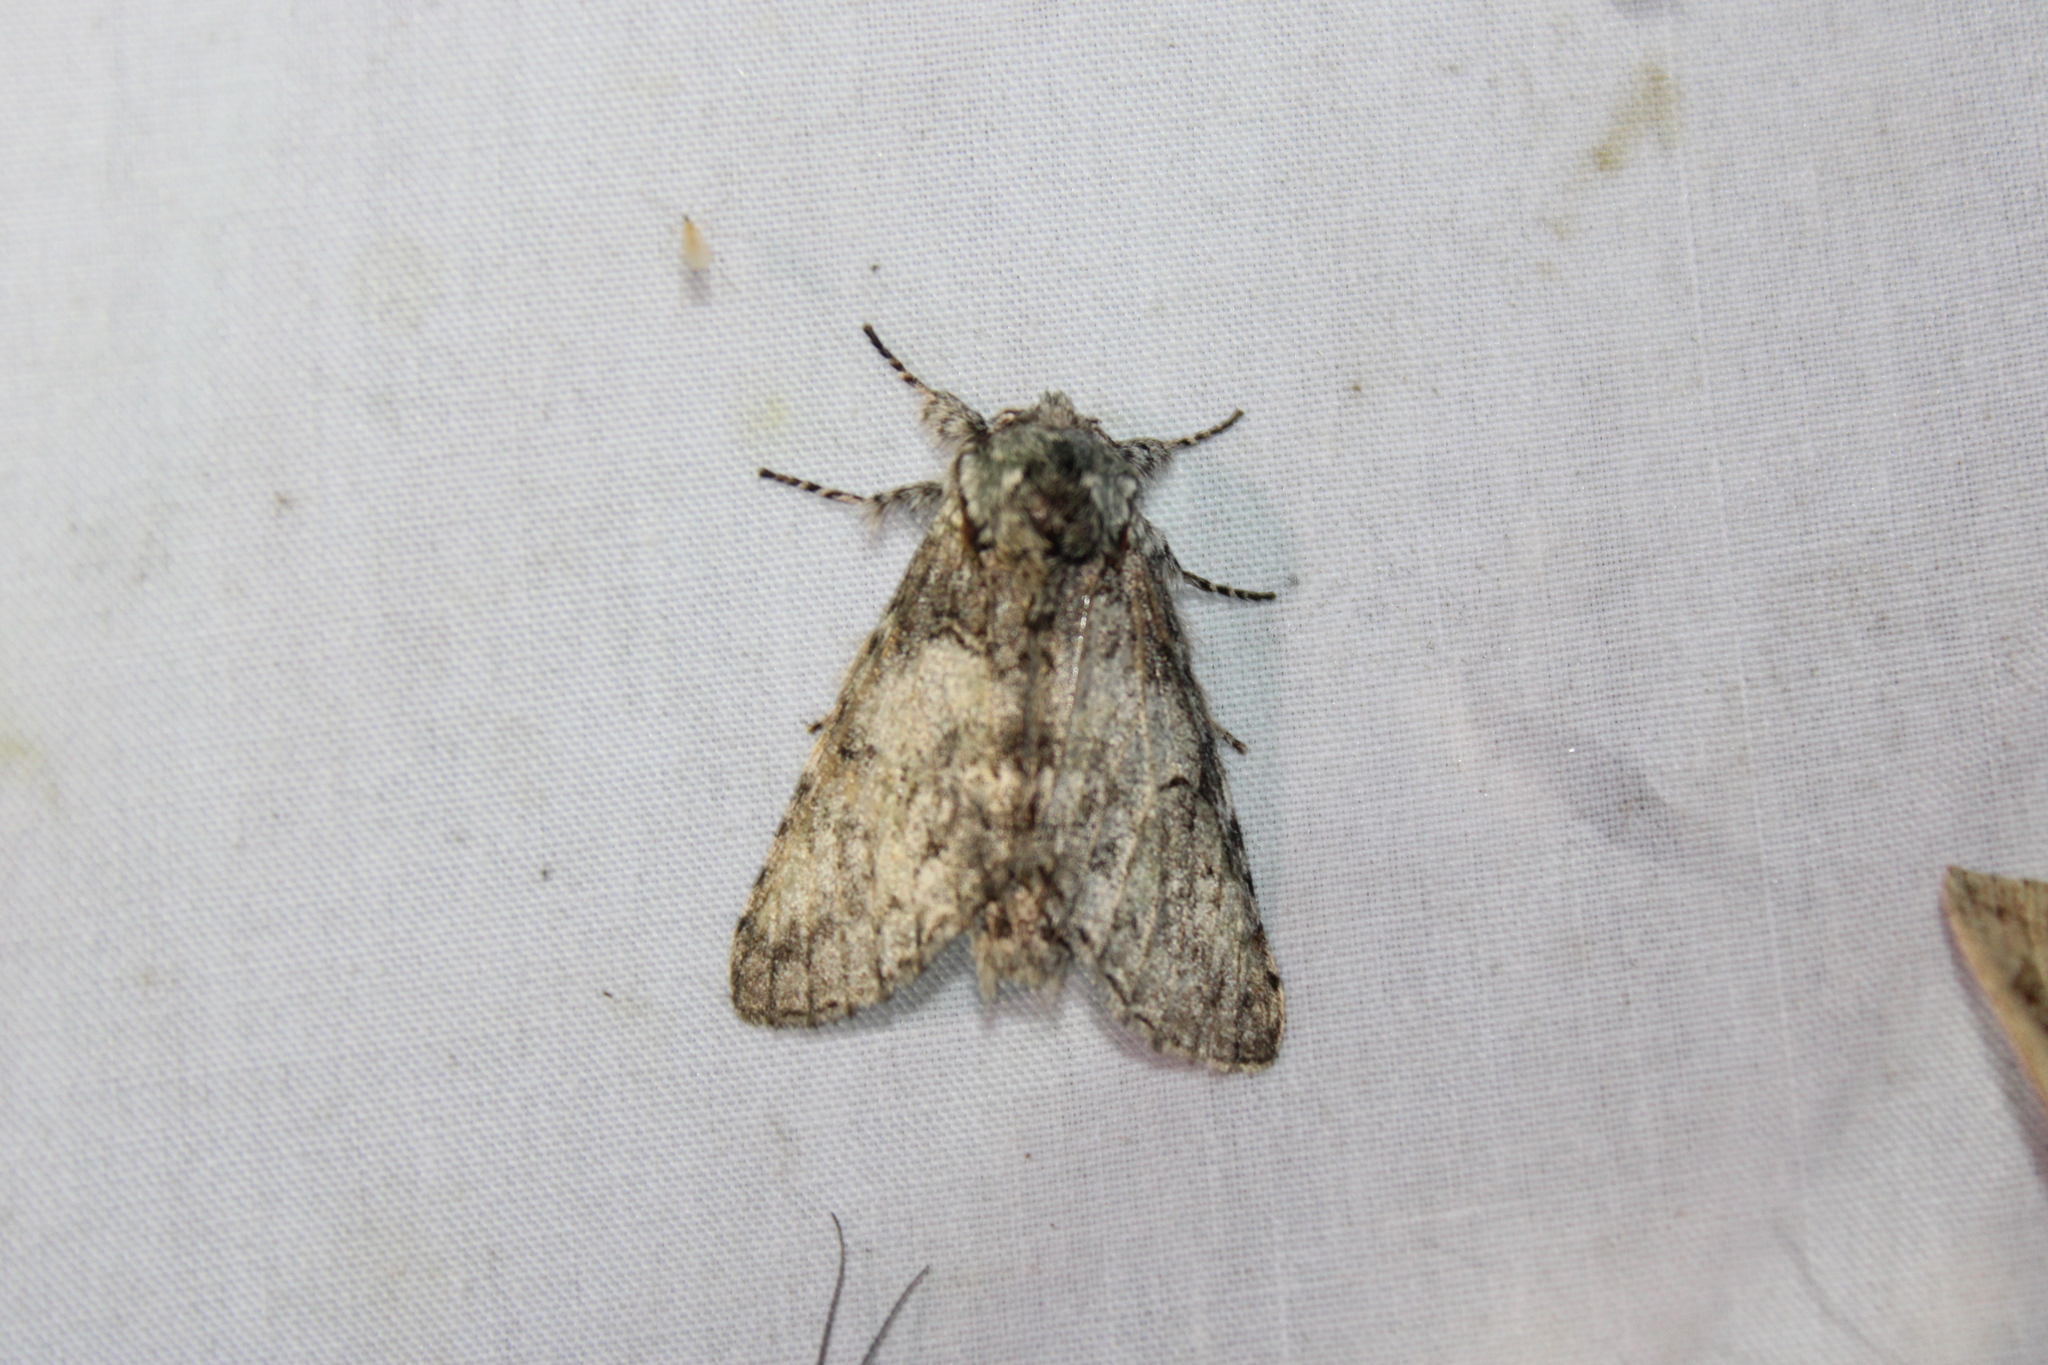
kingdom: Animalia
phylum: Arthropoda
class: Insecta
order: Lepidoptera
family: Notodontidae
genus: Macrurocampa
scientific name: Macrurocampa marthesia
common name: Mottled prominent
